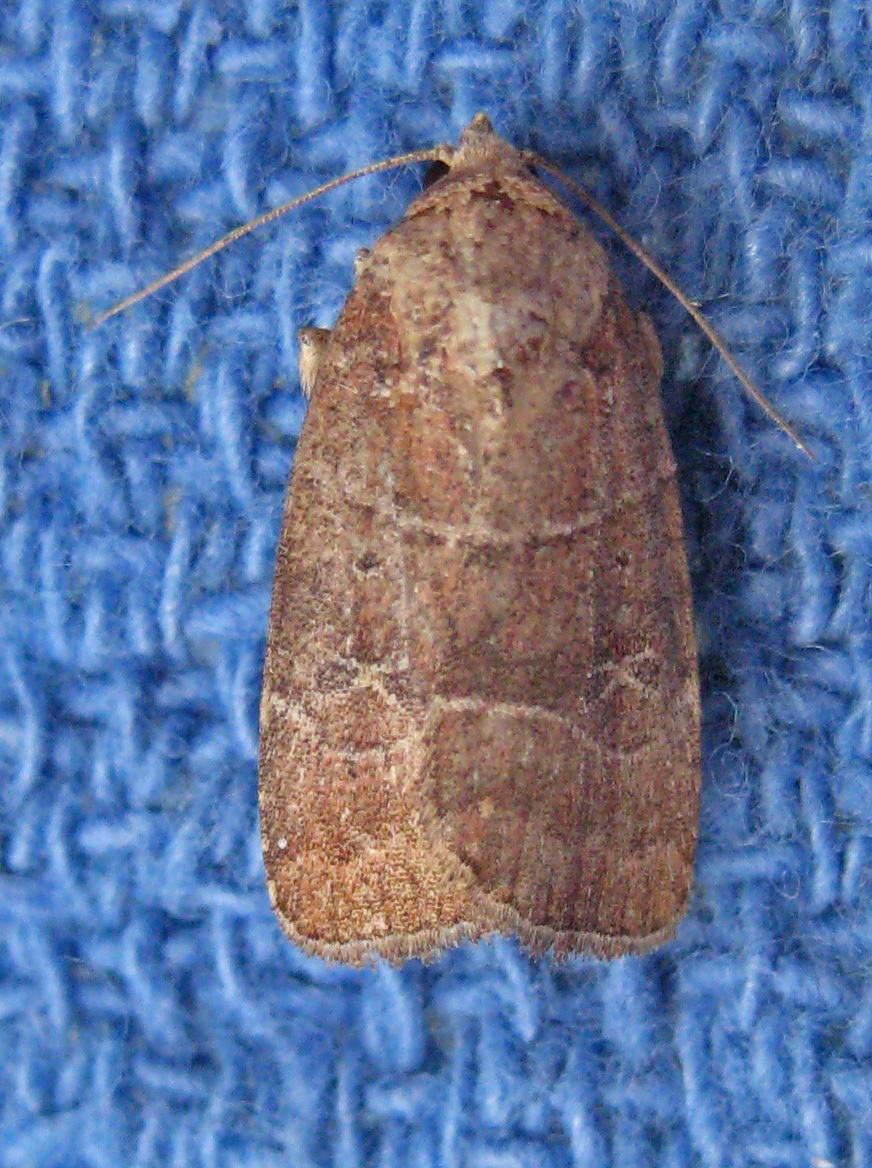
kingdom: Animalia
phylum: Arthropoda
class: Insecta
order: Lepidoptera
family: Noctuidae
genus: Elaphria
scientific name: Elaphria grata
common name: Grateful midget moth
